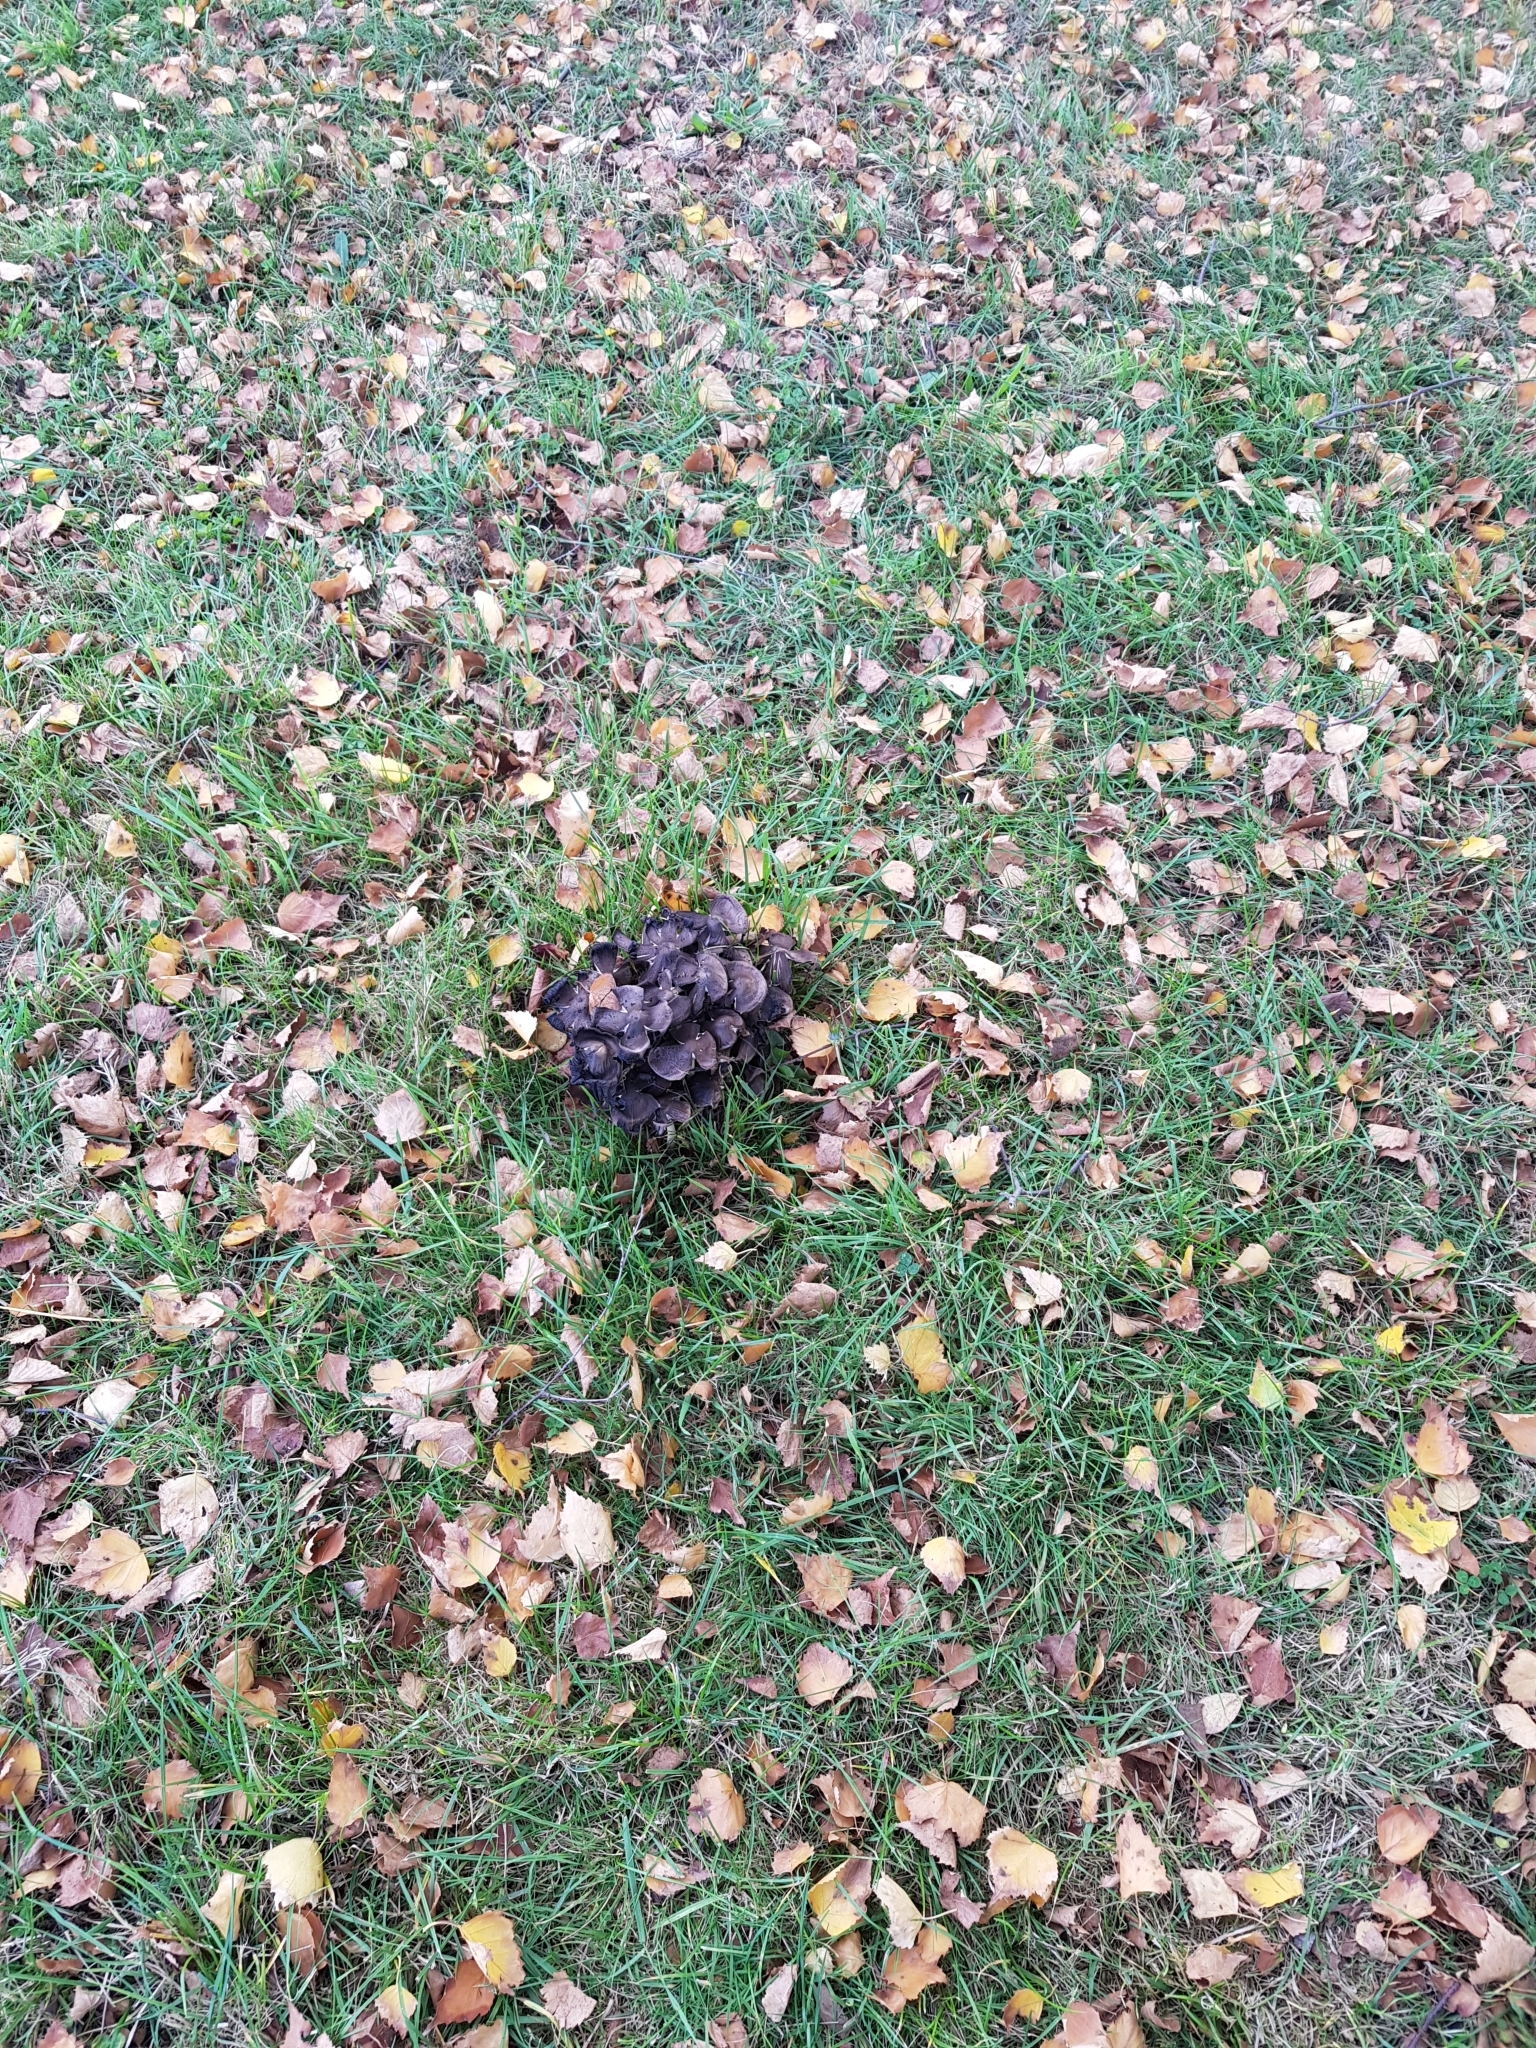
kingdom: Fungi
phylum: Basidiomycota
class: Agaricomycetes
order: Agaricales
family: Psathyrellaceae
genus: Coprinopsis
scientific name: Coprinopsis atramentaria
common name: Common ink-cap
